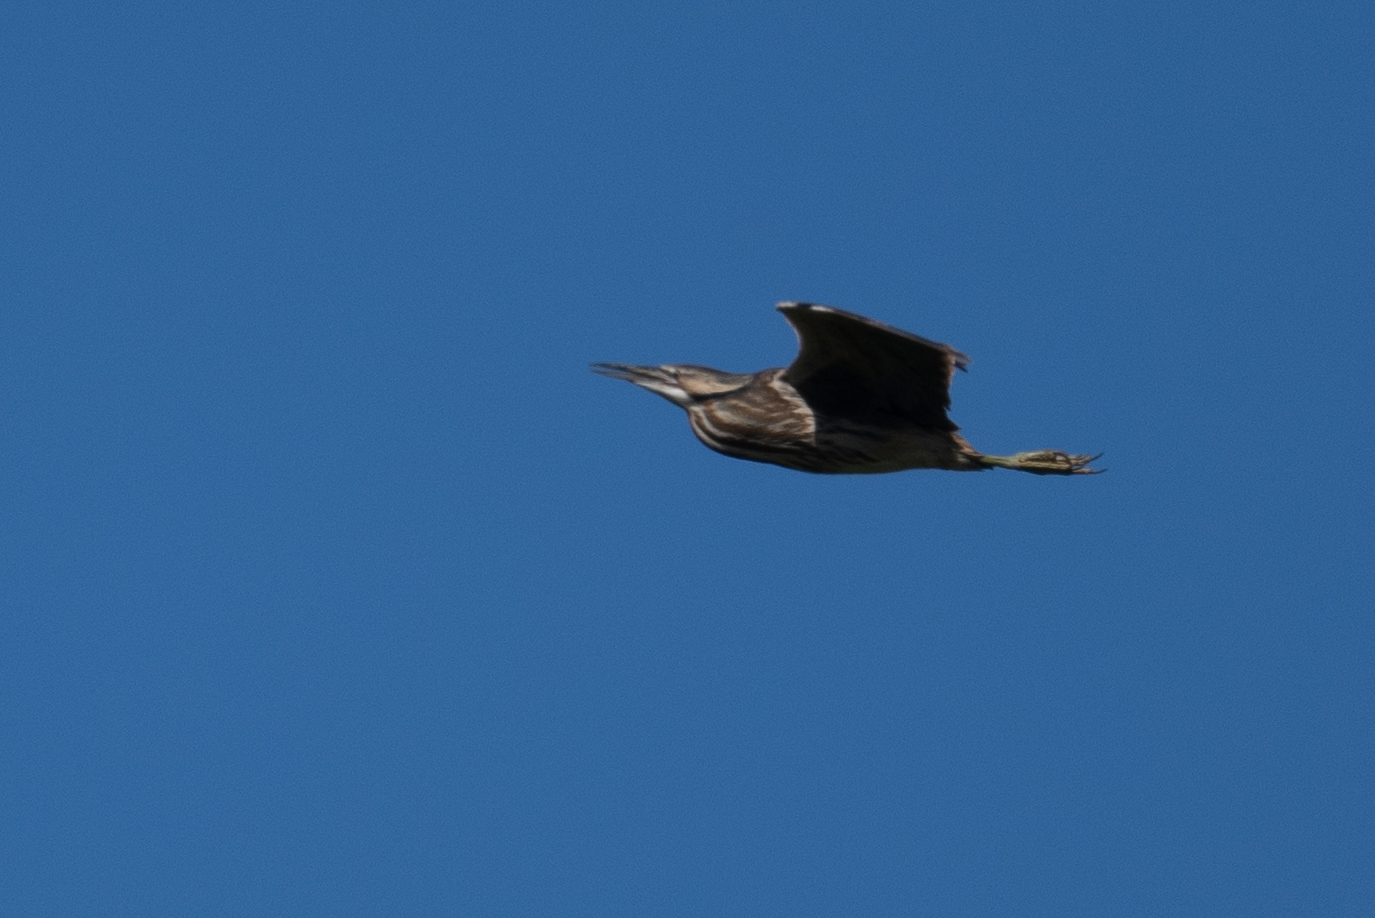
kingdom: Animalia
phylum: Chordata
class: Aves
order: Pelecaniformes
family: Ardeidae
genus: Botaurus
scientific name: Botaurus lentiginosus
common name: American bittern
